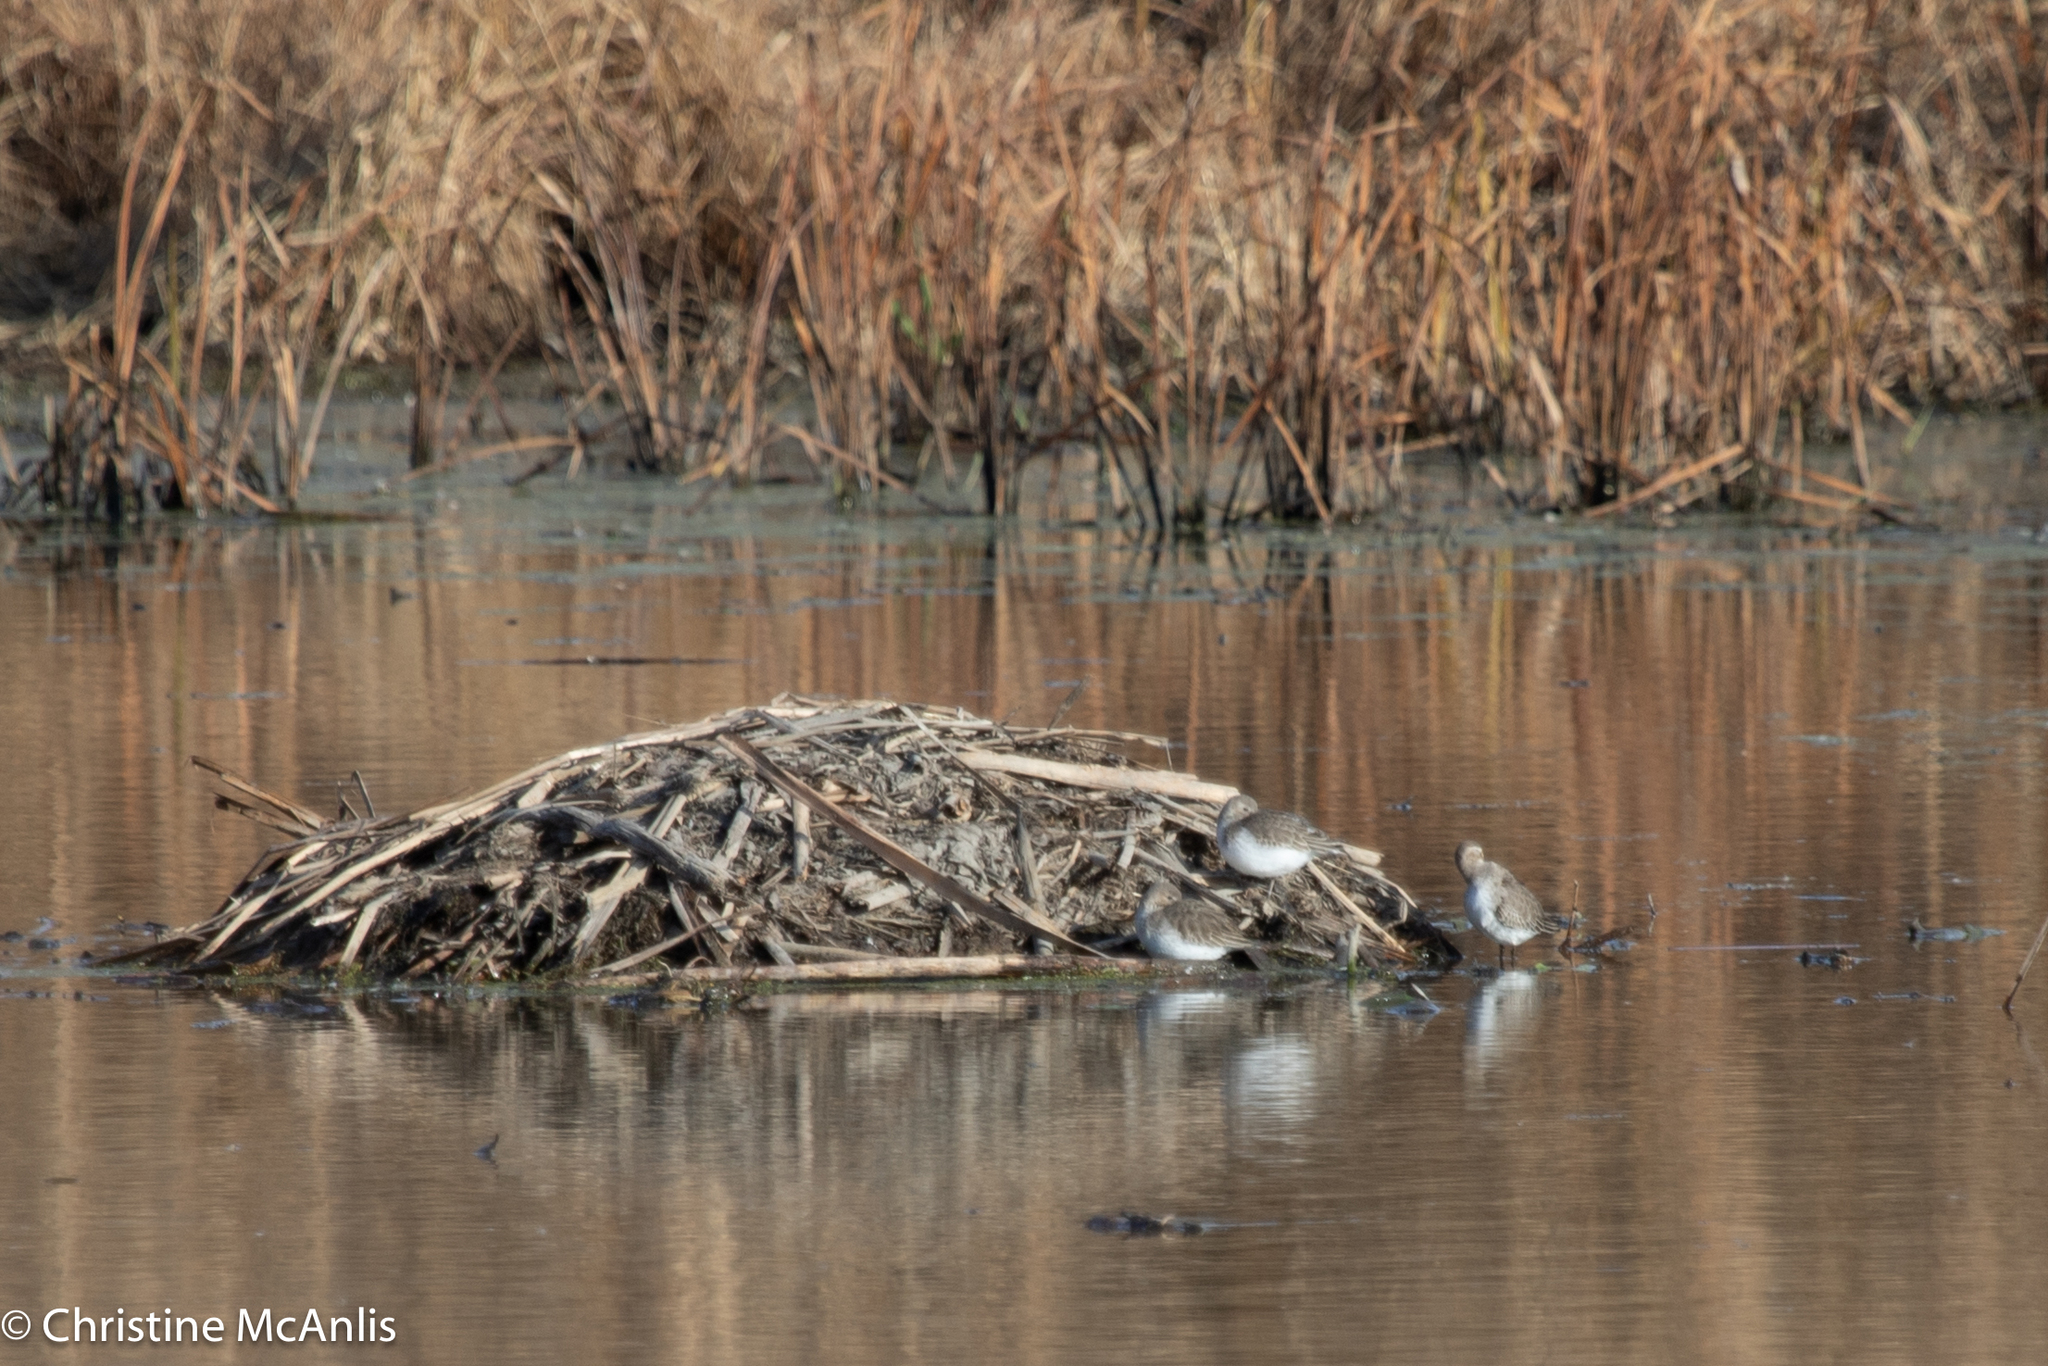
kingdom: Animalia
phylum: Chordata
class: Aves
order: Charadriiformes
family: Scolopacidae
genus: Calidris
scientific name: Calidris alpina
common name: Dunlin
